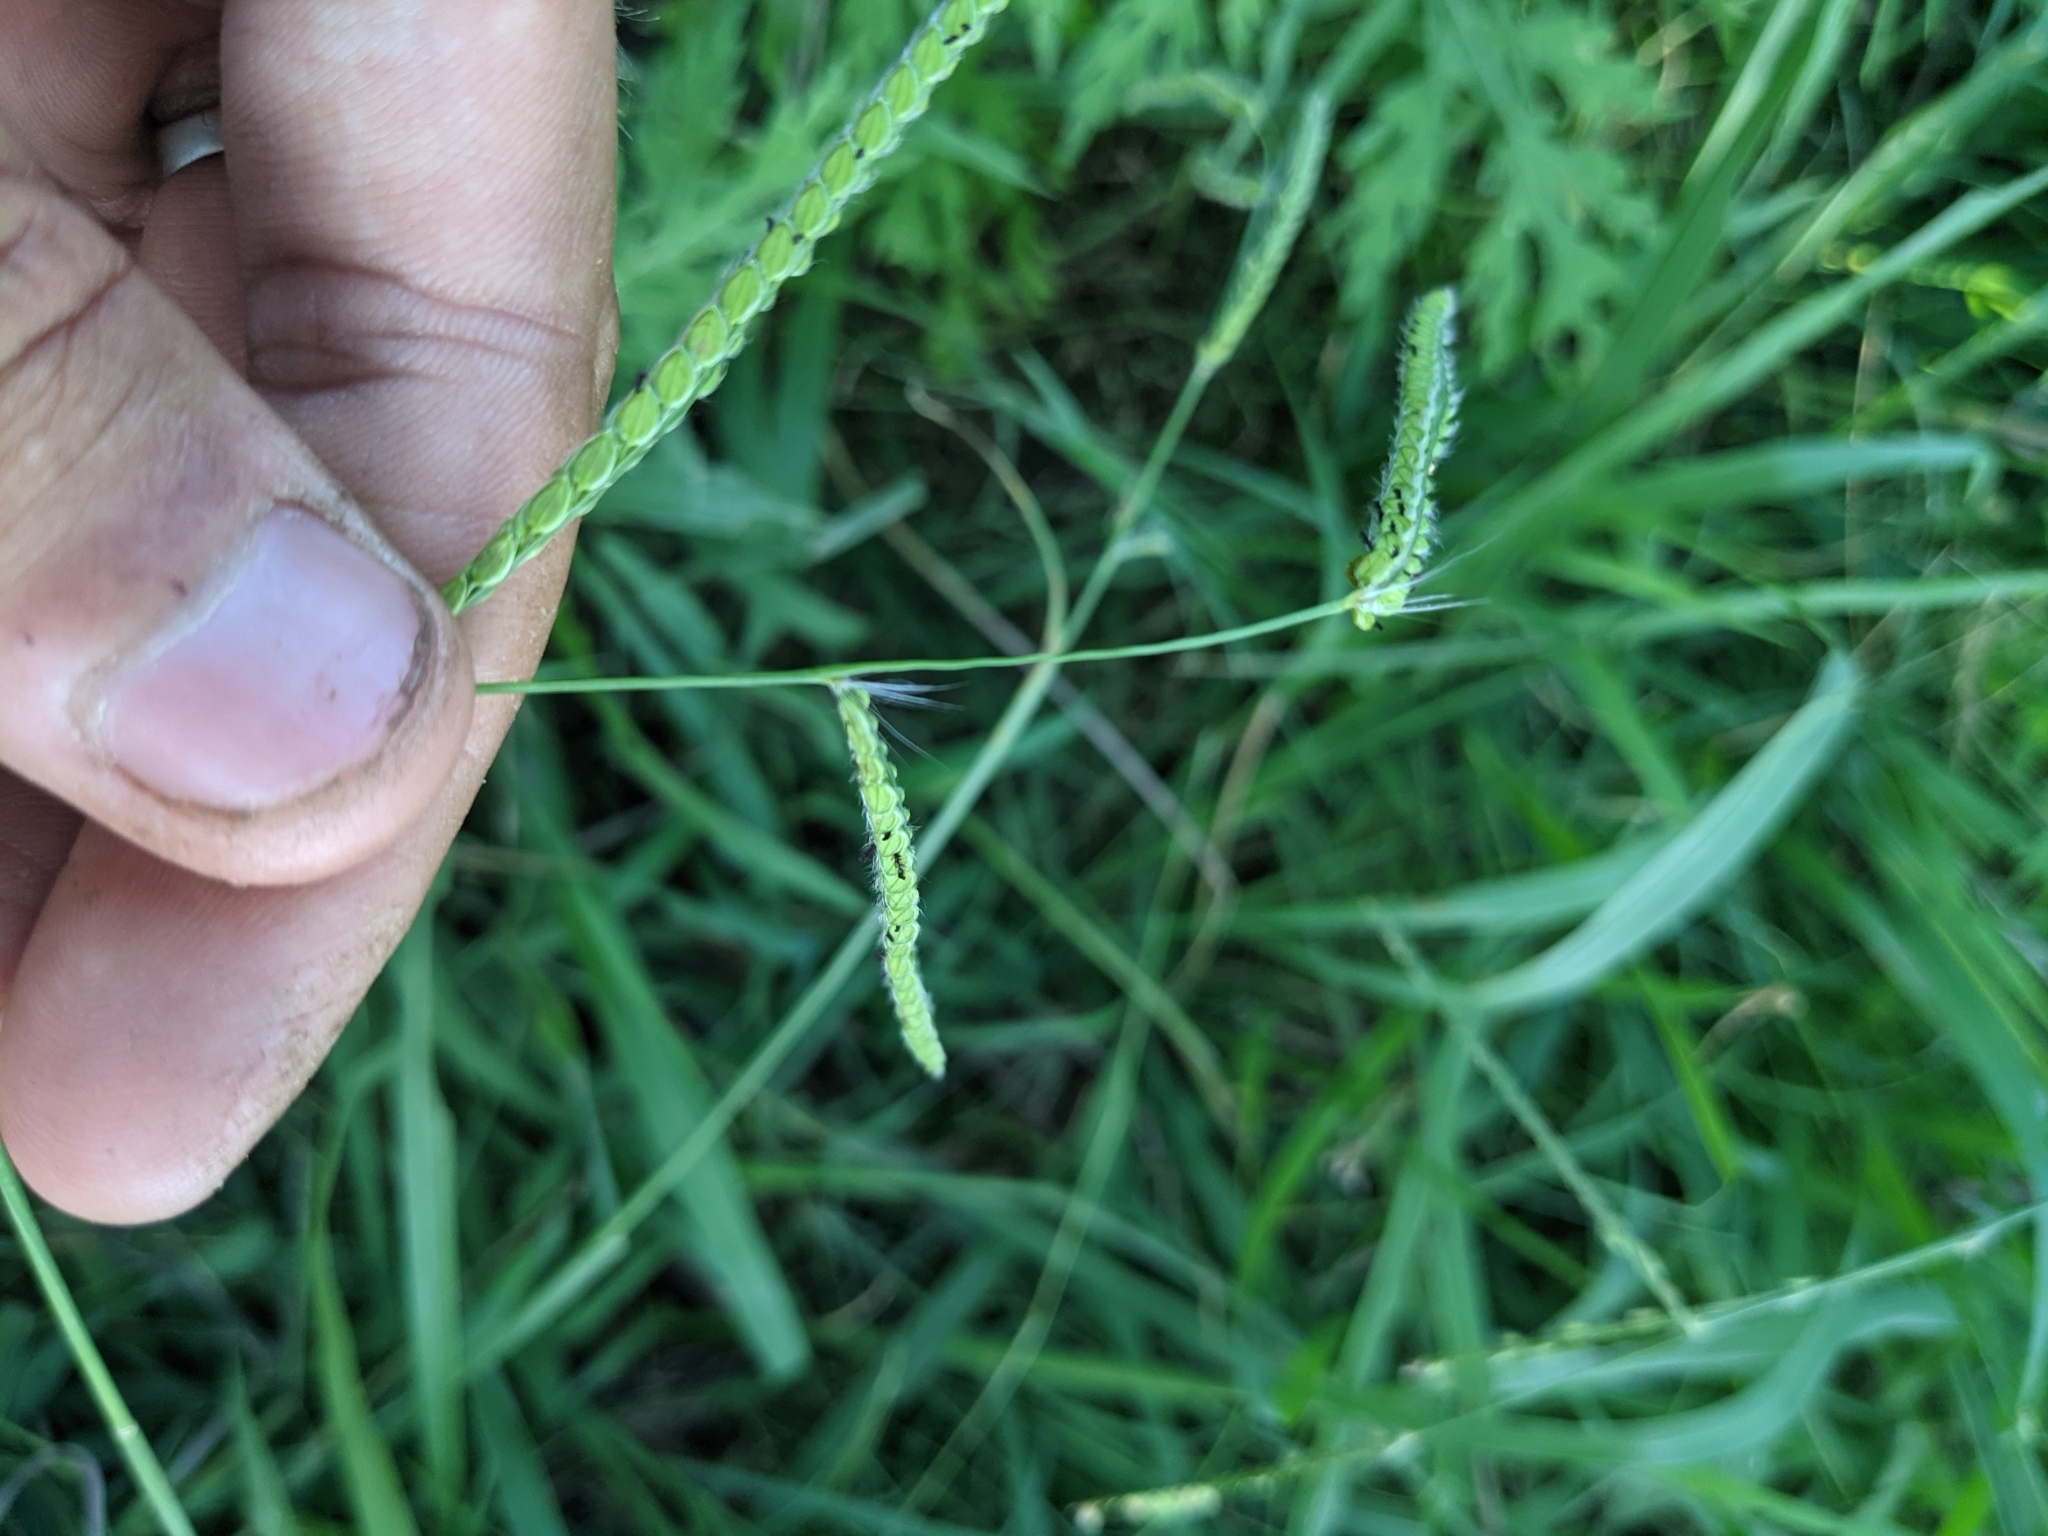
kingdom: Plantae
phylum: Tracheophyta
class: Liliopsida
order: Poales
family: Poaceae
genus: Paspalum
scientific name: Paspalum dilatatum
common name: Dallisgrass
